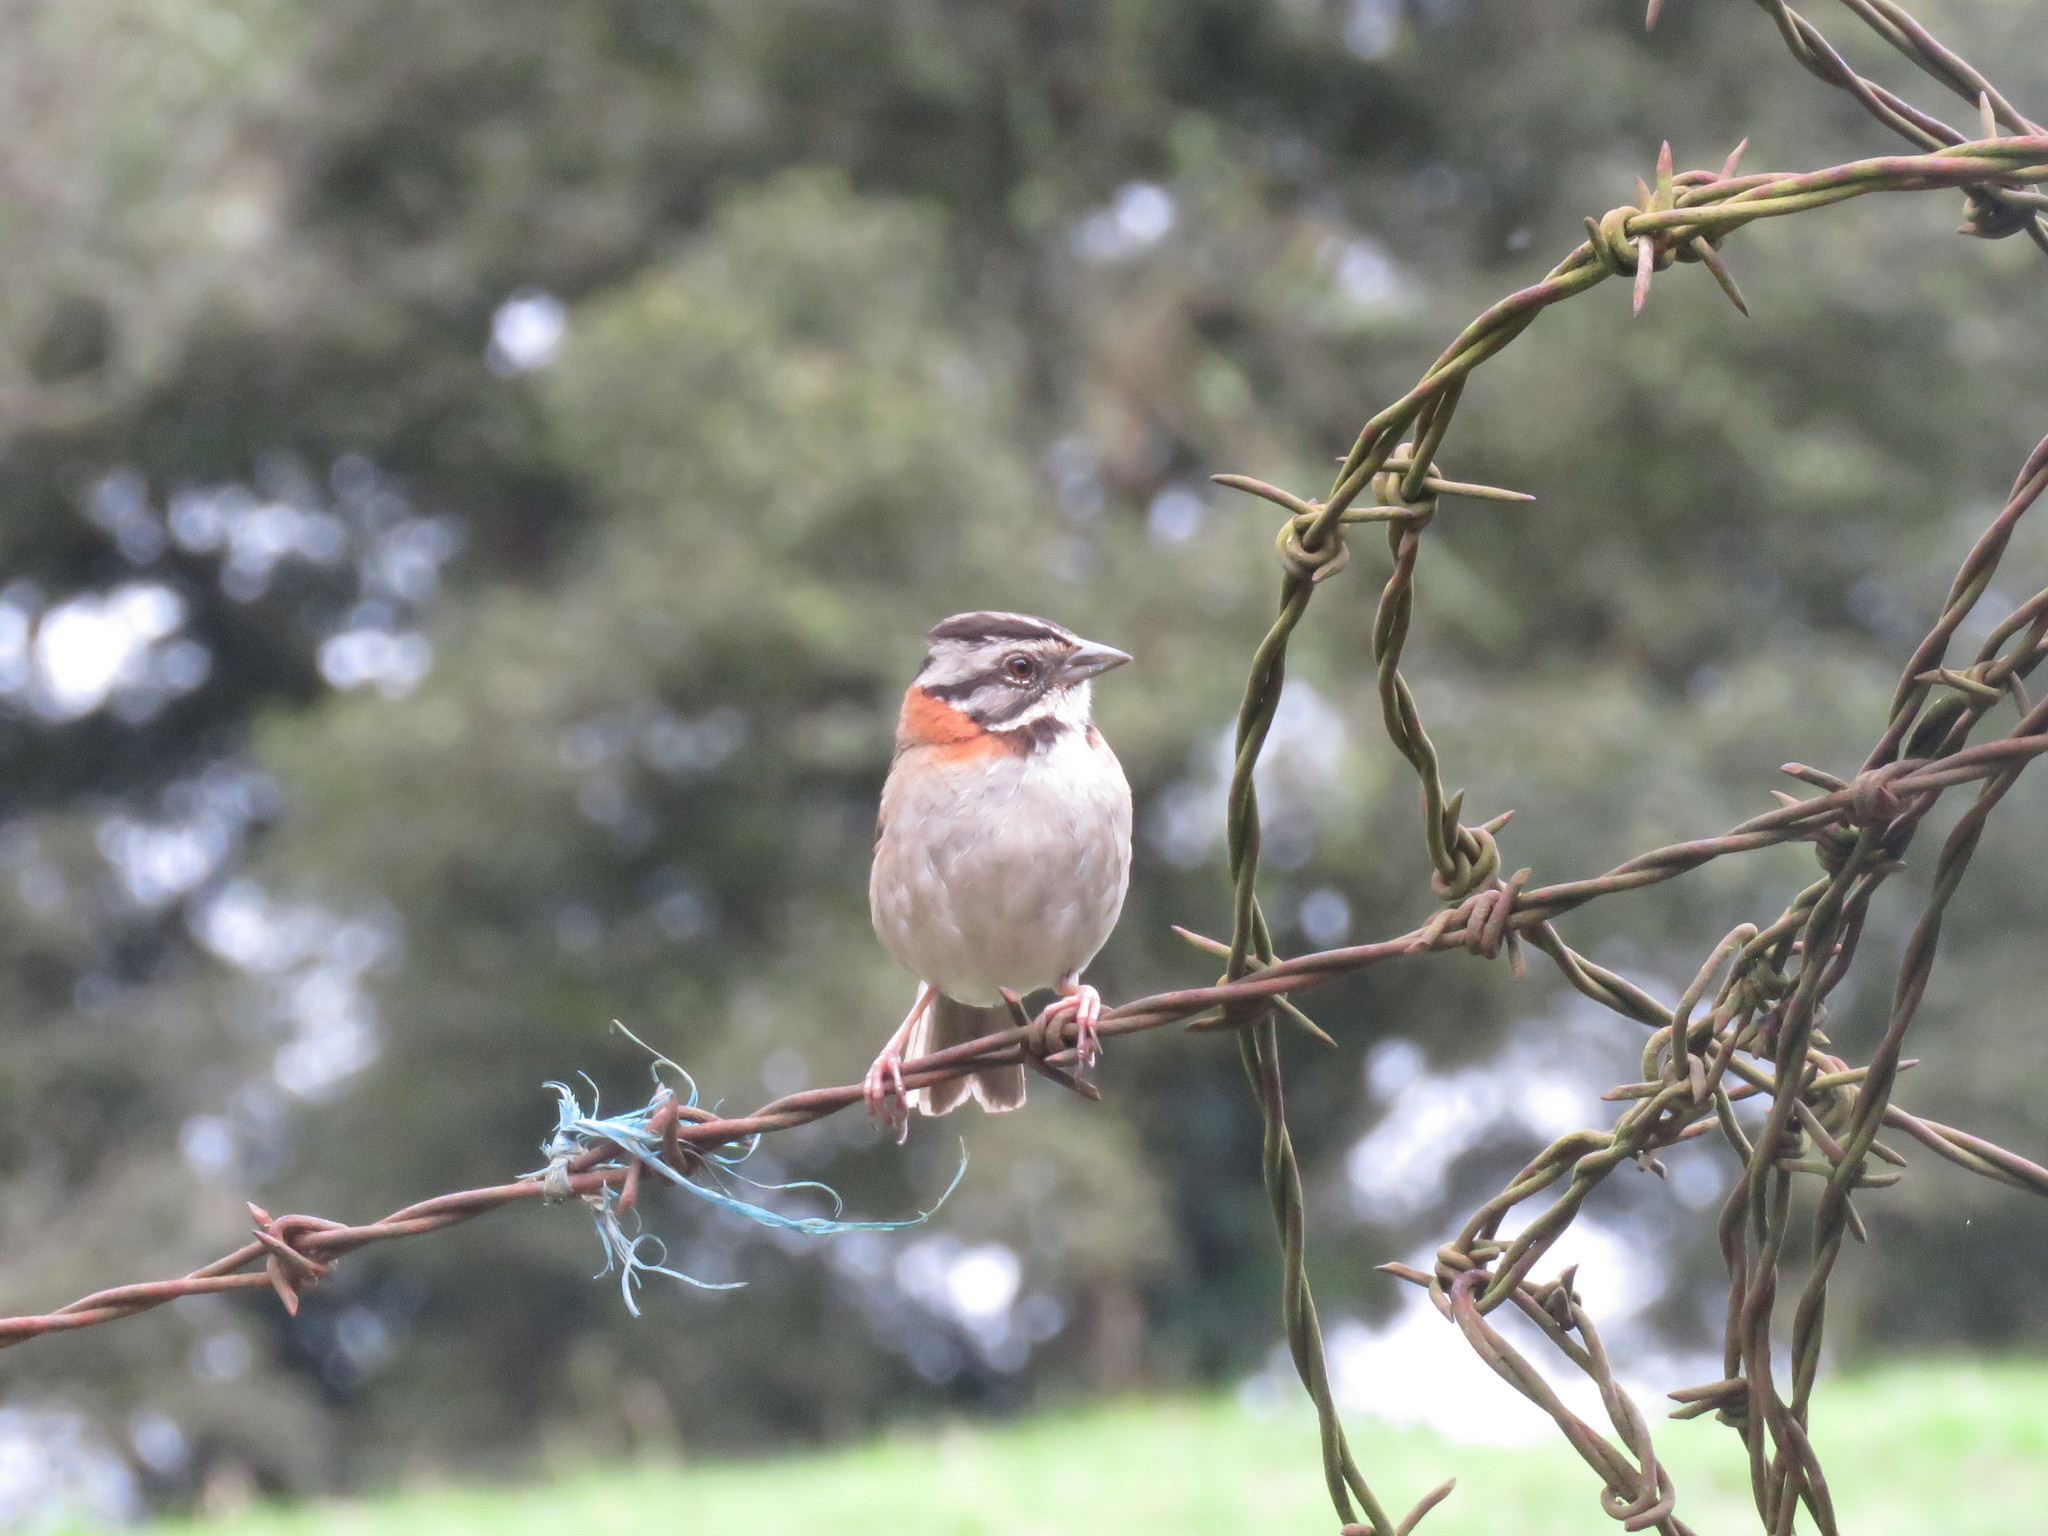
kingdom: Animalia
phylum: Chordata
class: Aves
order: Passeriformes
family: Passerellidae
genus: Zonotrichia
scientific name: Zonotrichia capensis
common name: Rufous-collared sparrow
